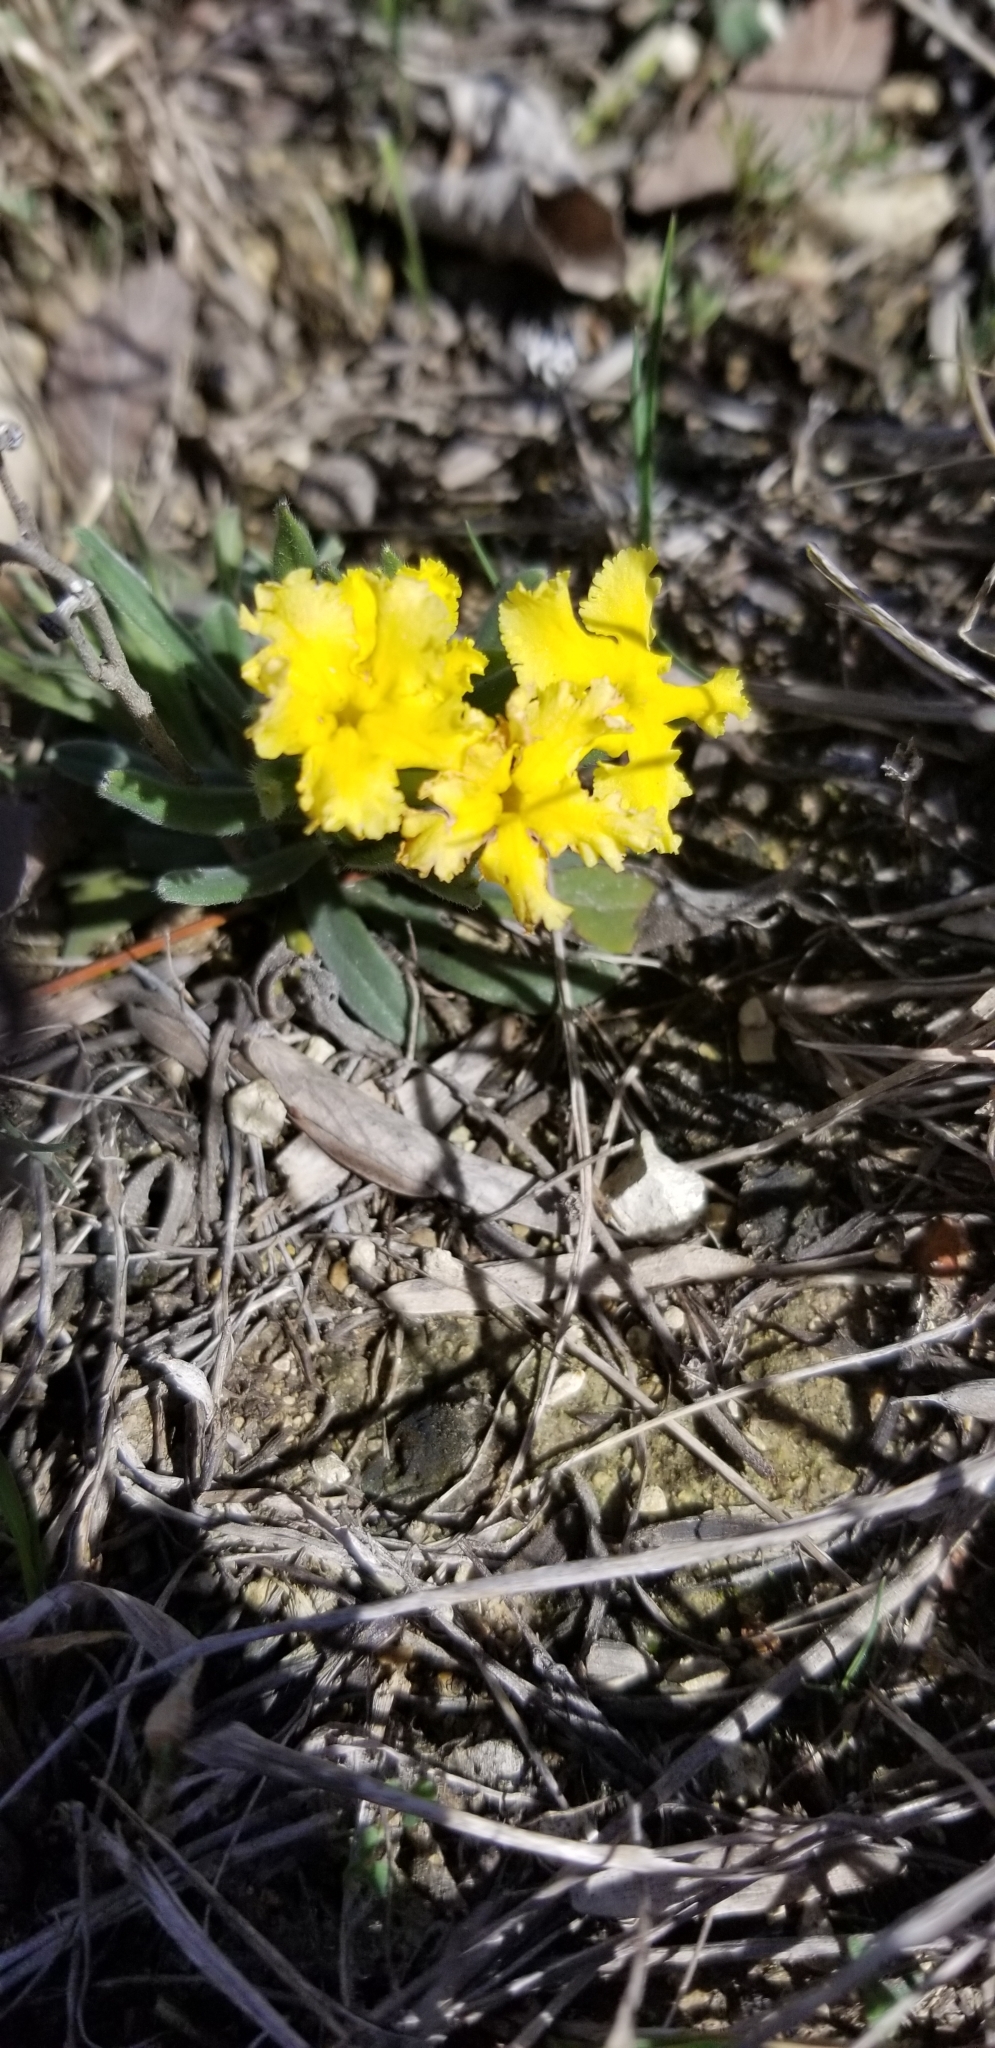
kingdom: Plantae
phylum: Tracheophyta
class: Magnoliopsida
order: Boraginales
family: Boraginaceae
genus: Lithospermum
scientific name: Lithospermum incisum
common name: Fringed gromwell
